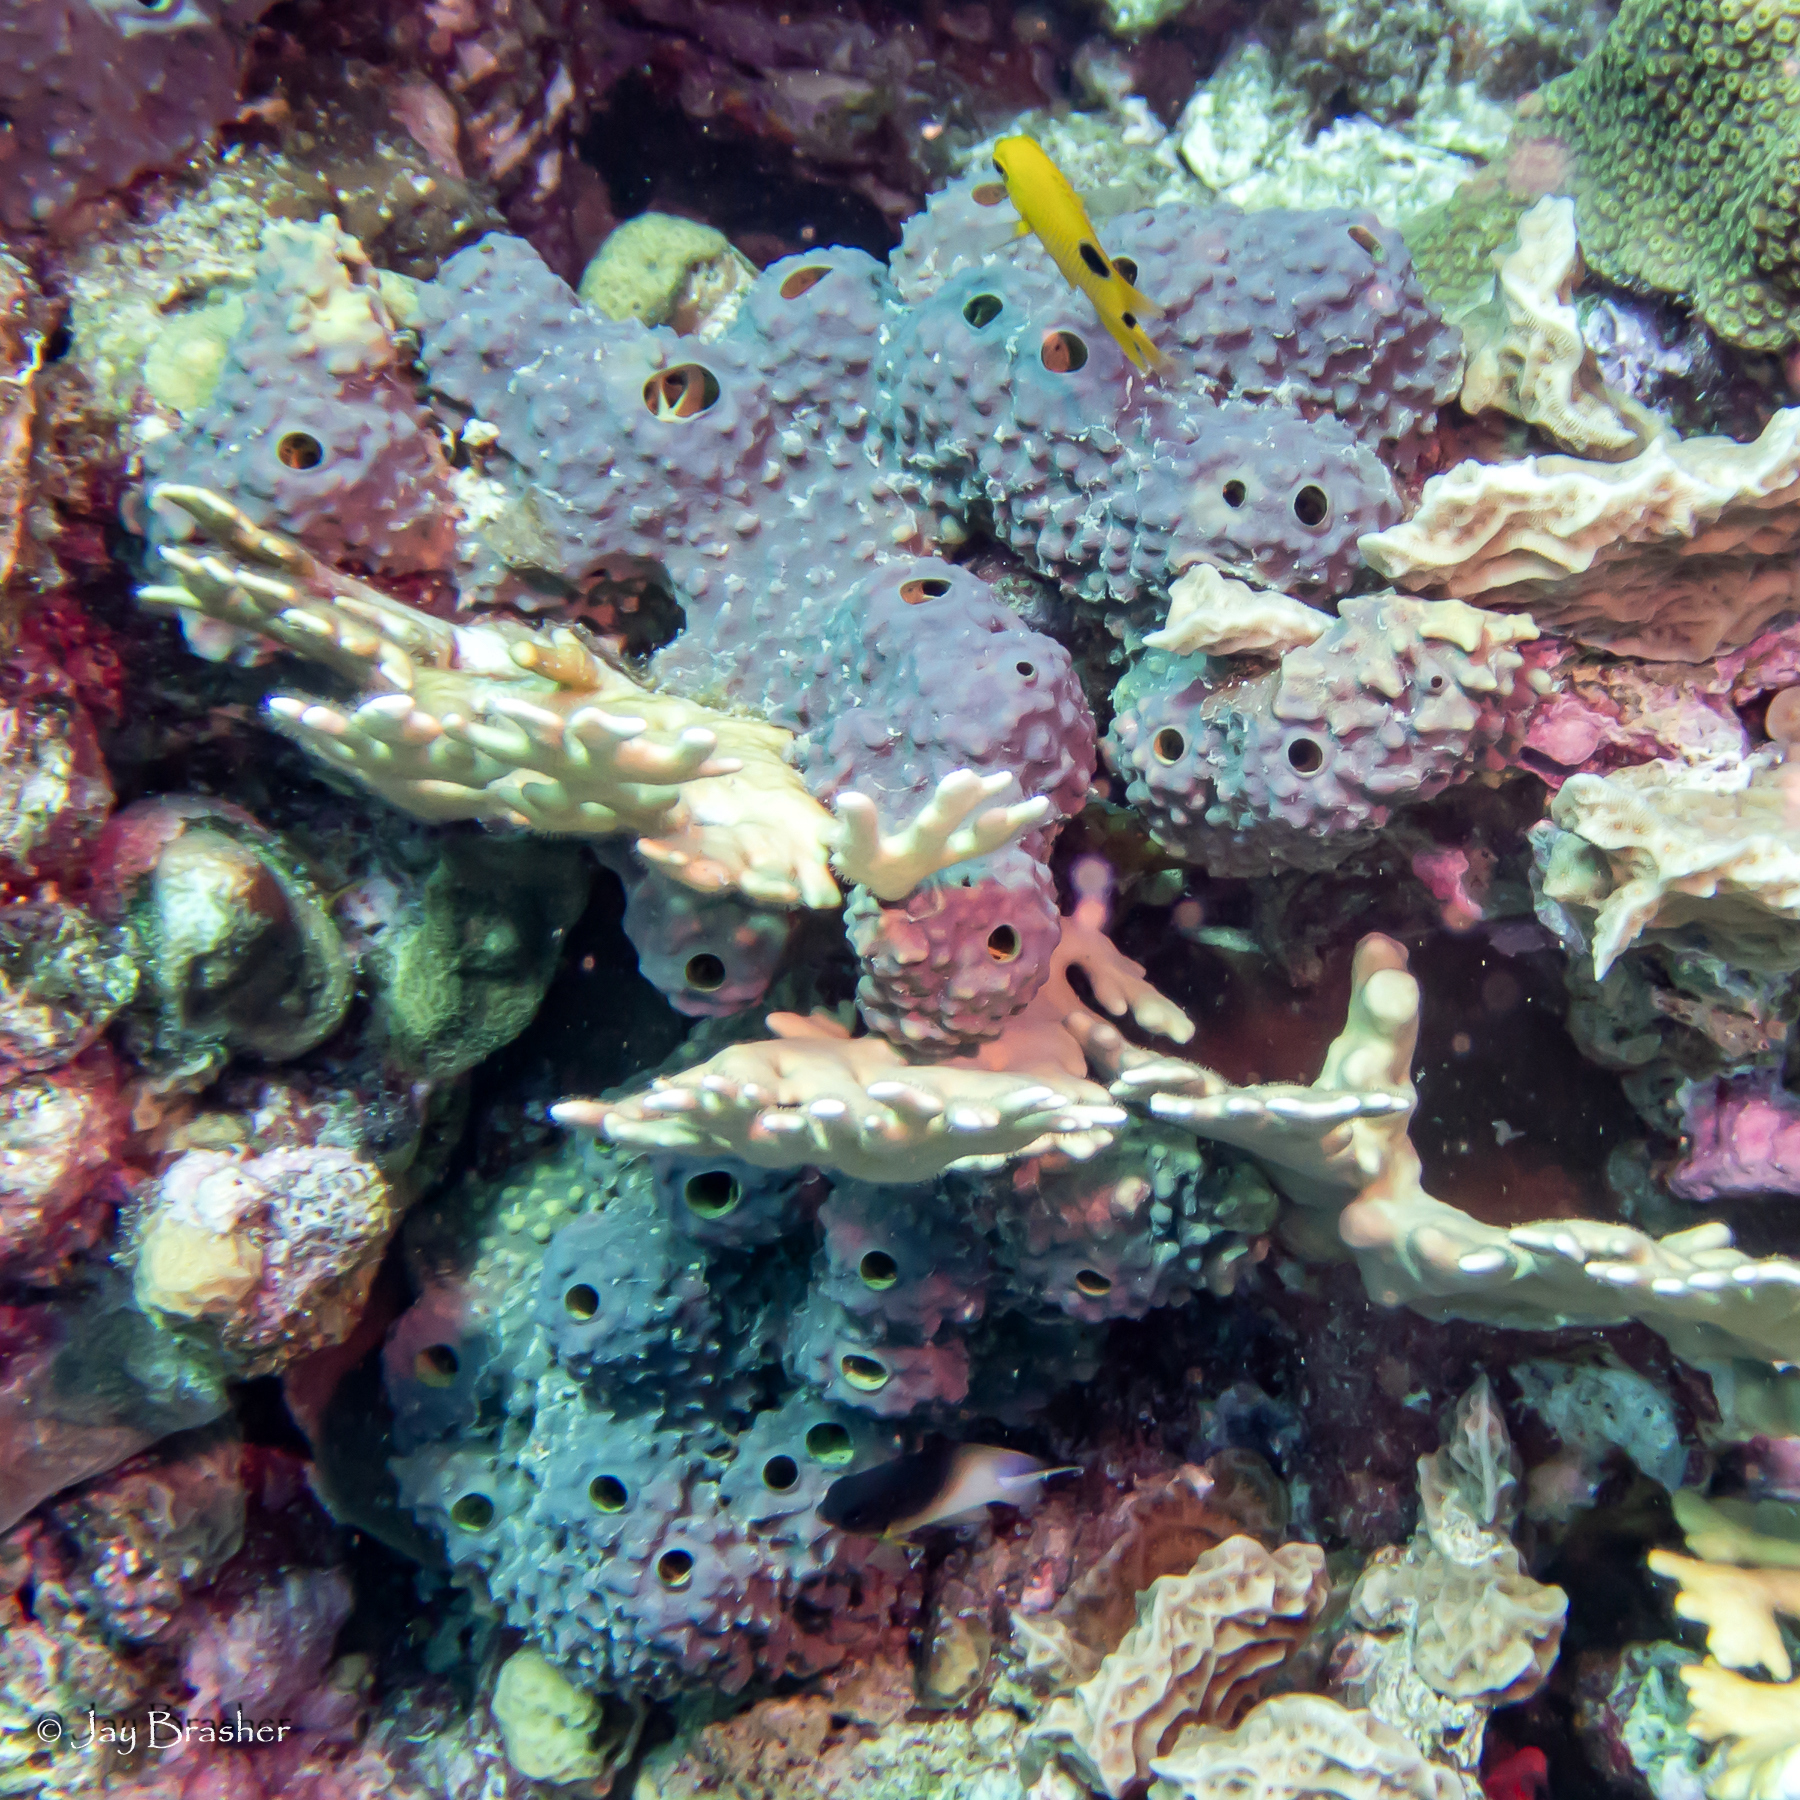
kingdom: Animalia
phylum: Chordata
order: Perciformes
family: Pomacentridae
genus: Stegastes
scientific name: Stegastes partitus
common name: Bicolor damselfish
